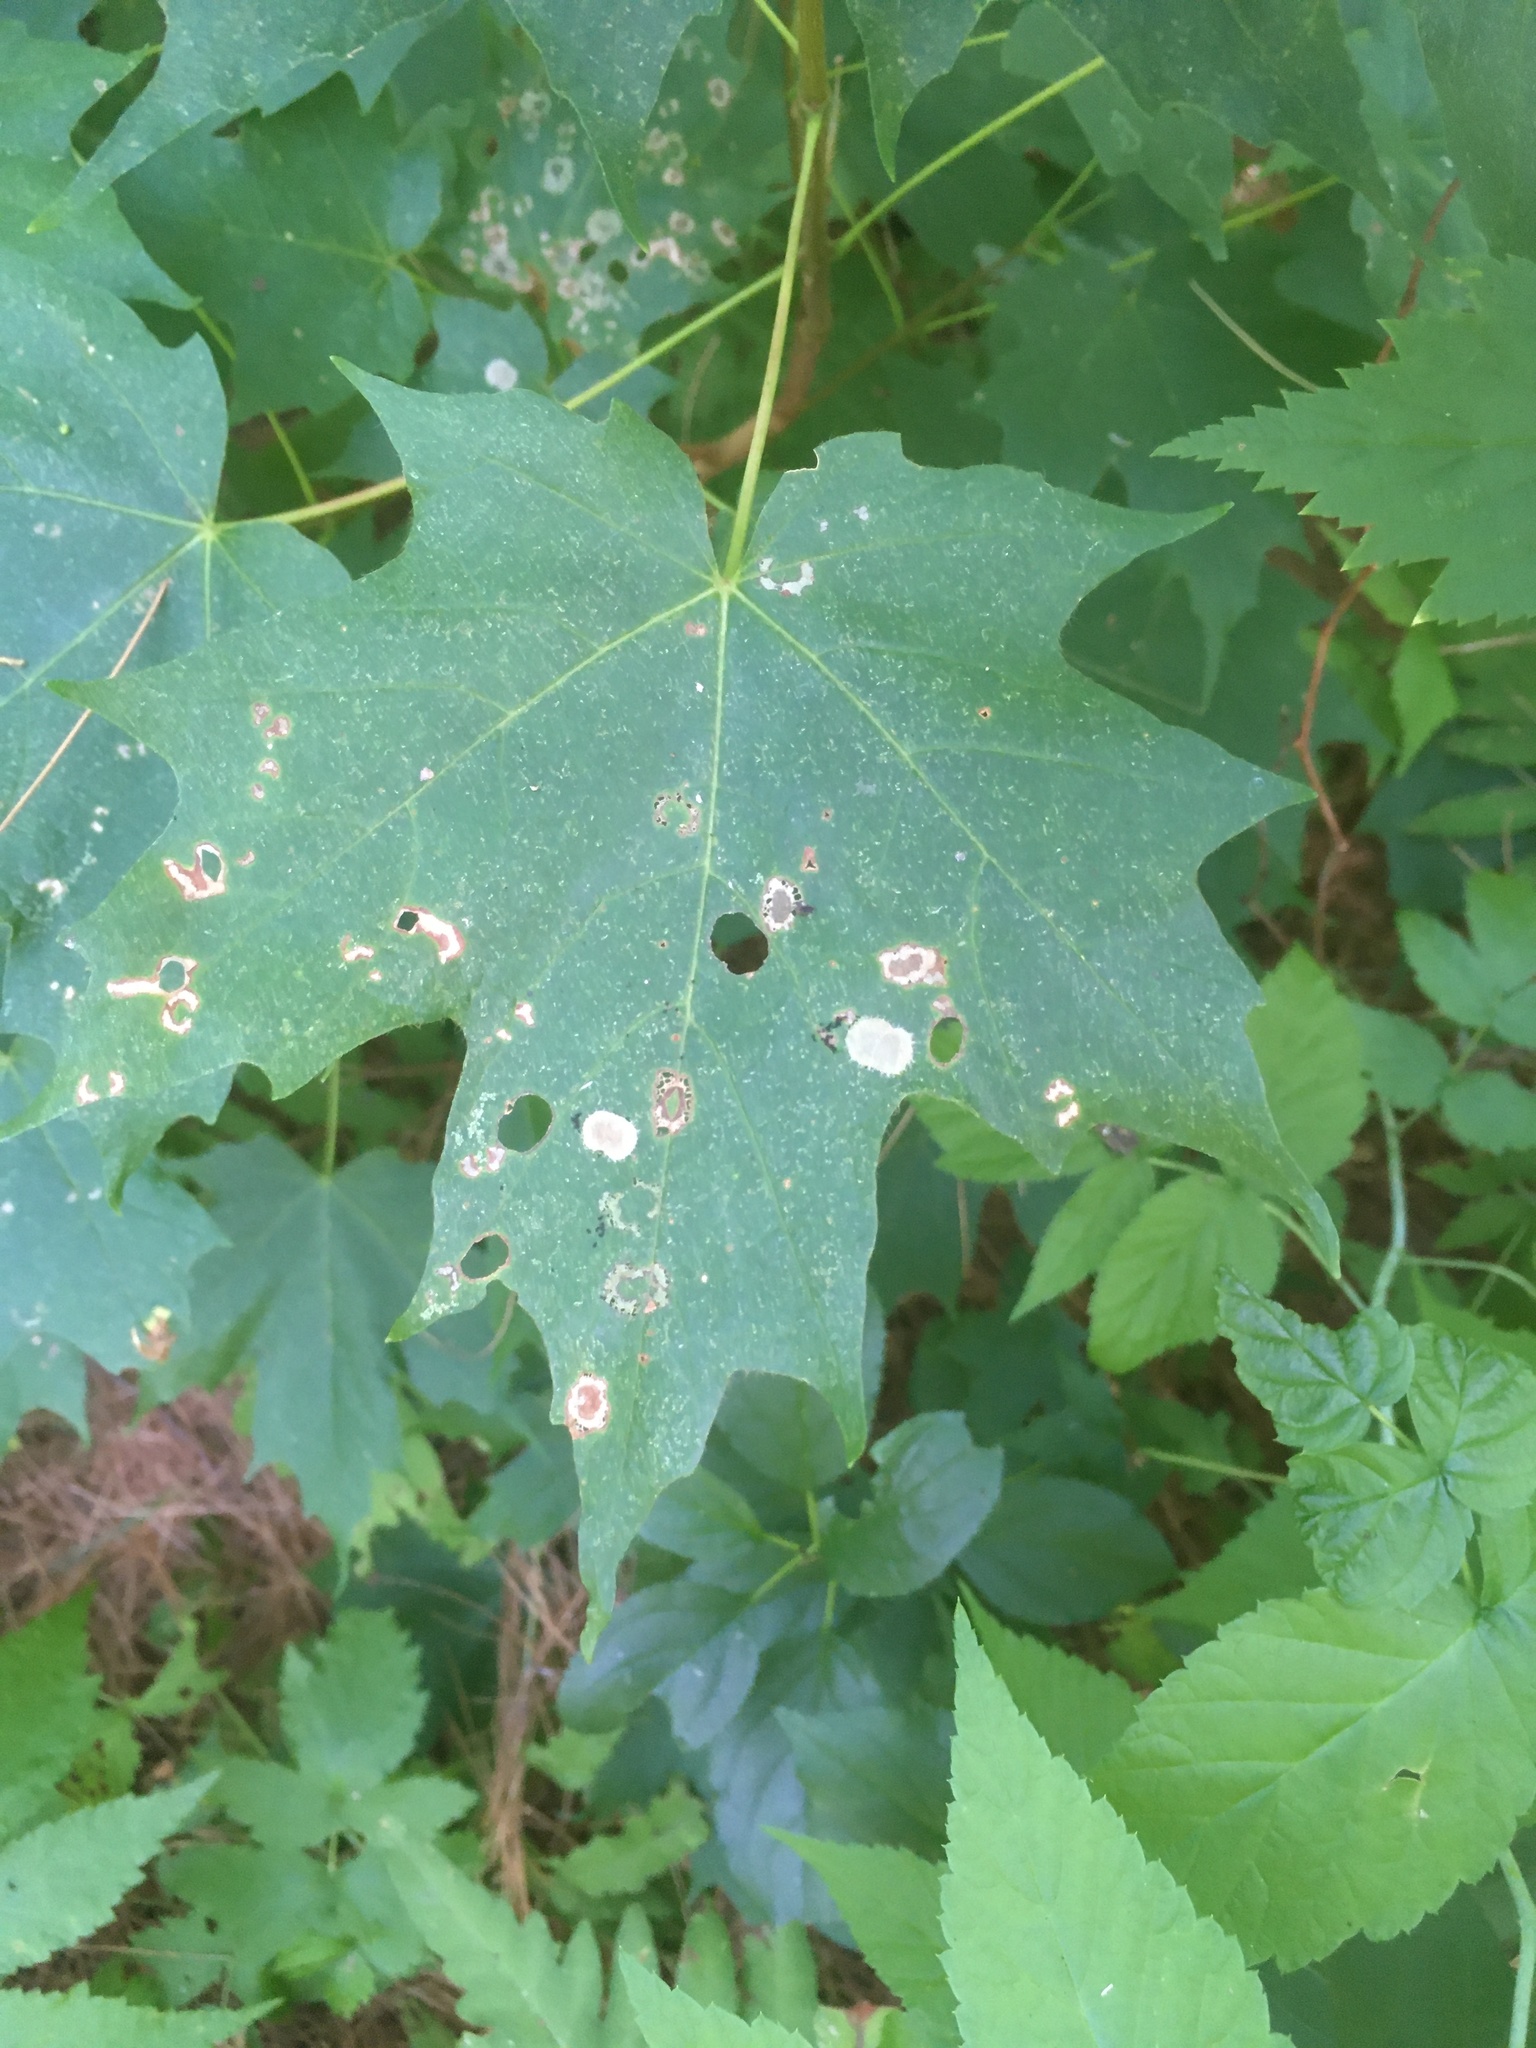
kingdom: Animalia
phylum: Arthropoda
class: Insecta
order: Lepidoptera
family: Incurvariidae
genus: Paraclemensia
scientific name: Paraclemensia acerifoliella
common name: Maple leafcutter
